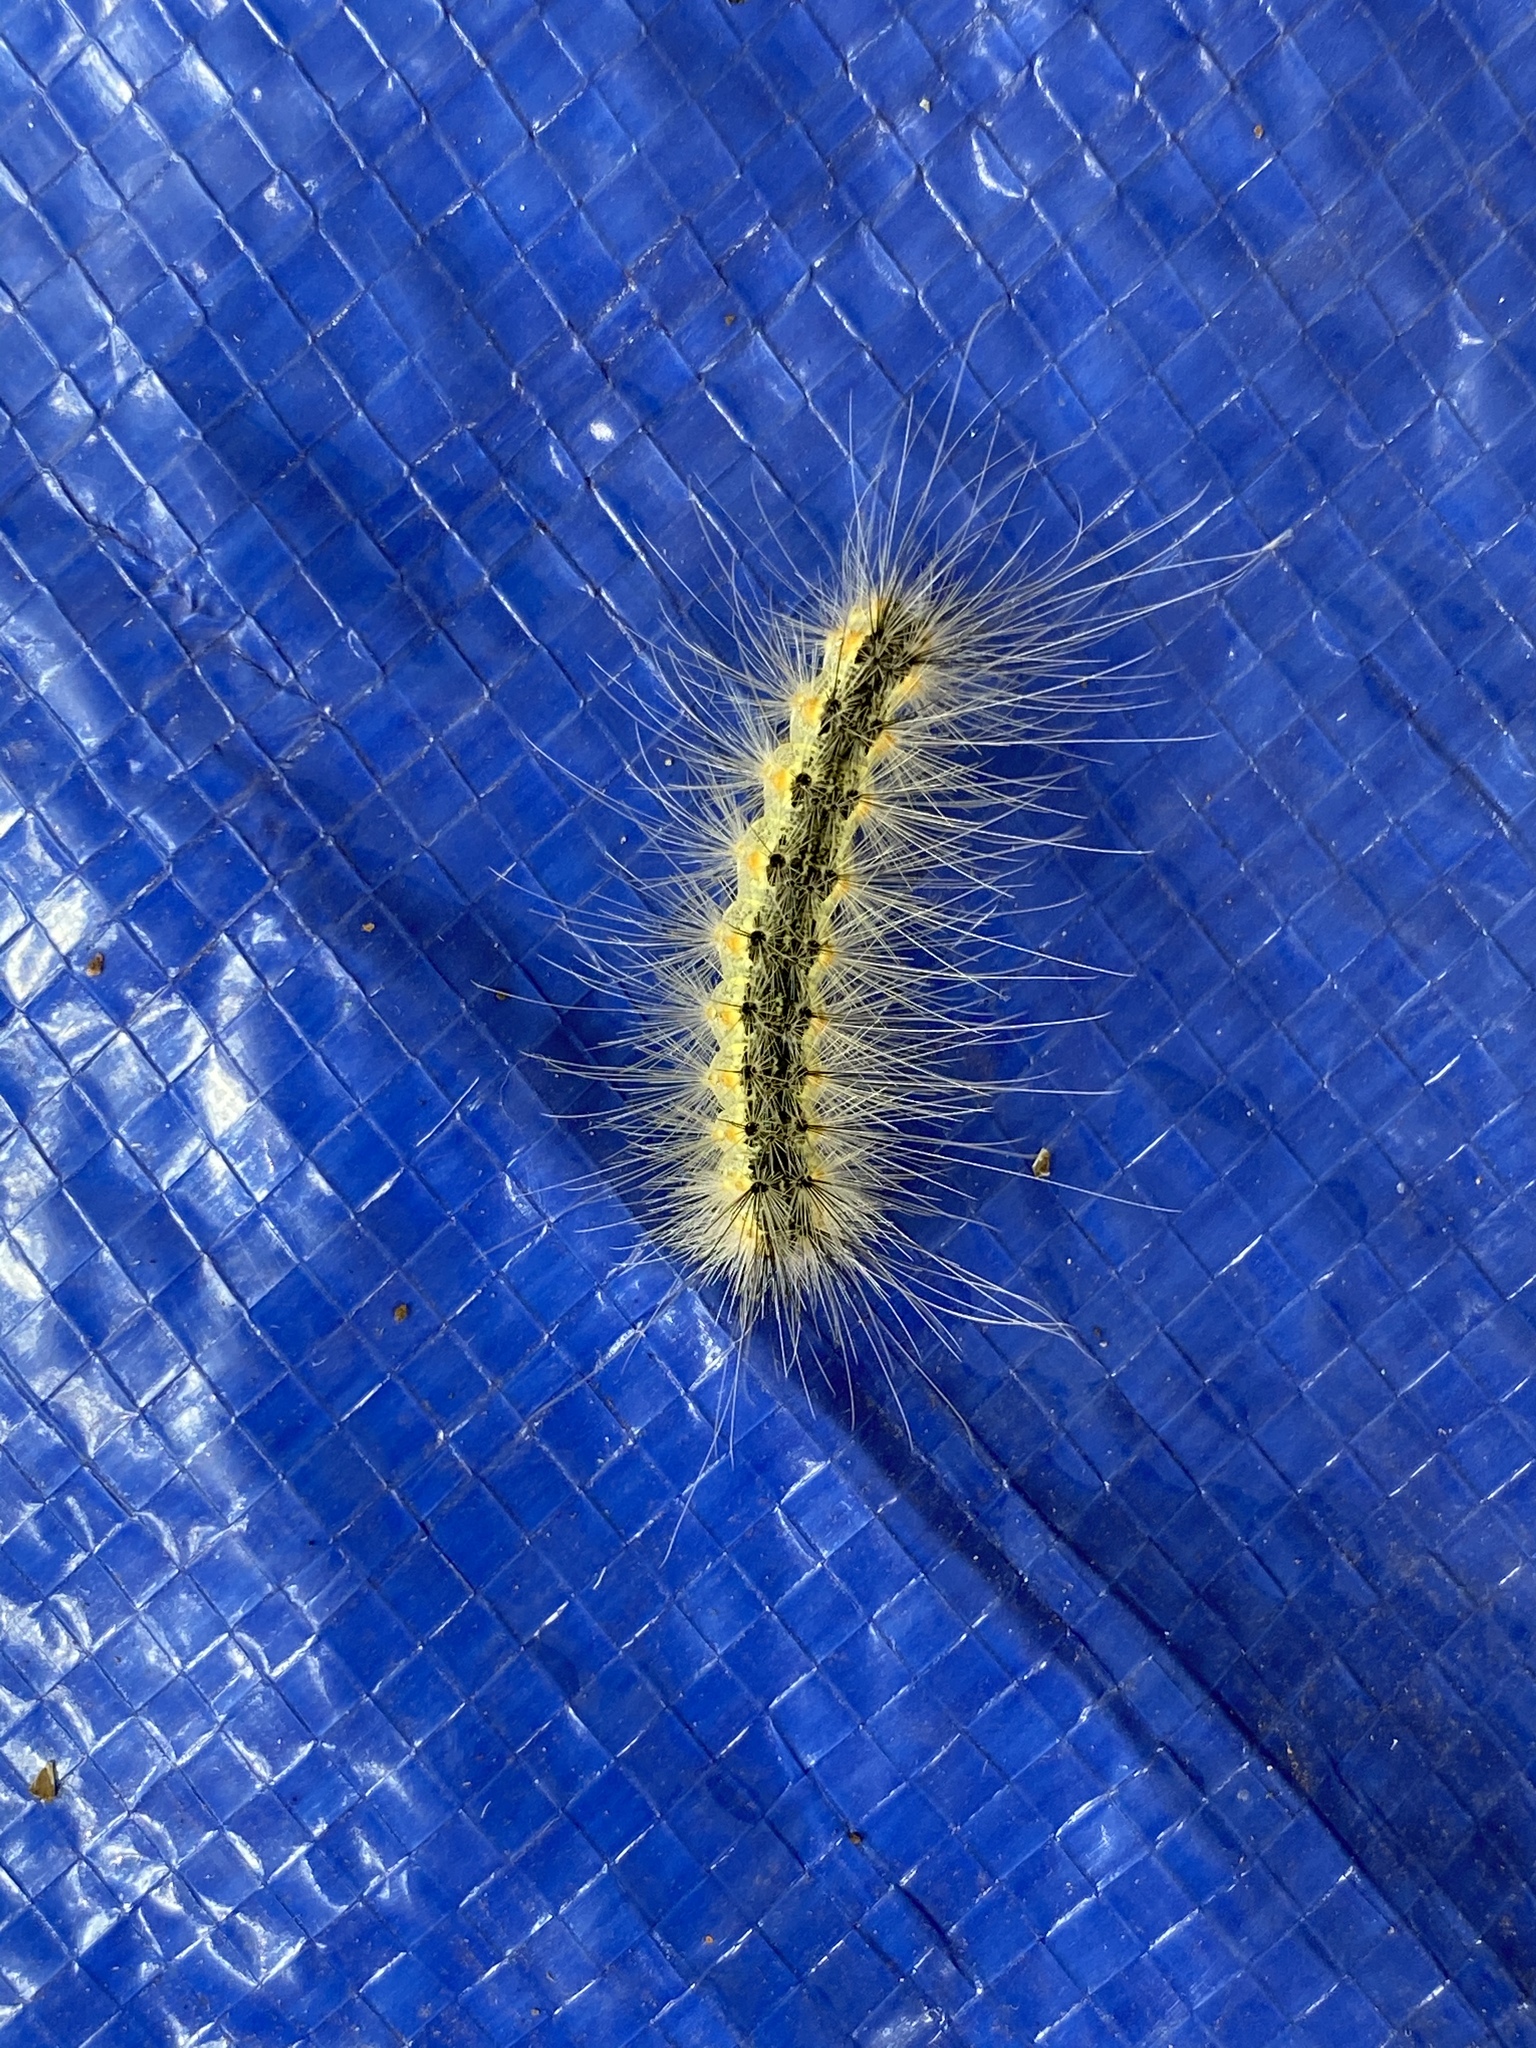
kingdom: Animalia
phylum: Arthropoda
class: Insecta
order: Lepidoptera
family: Erebidae
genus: Hyphantria
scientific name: Hyphantria cunea
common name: American white moth
